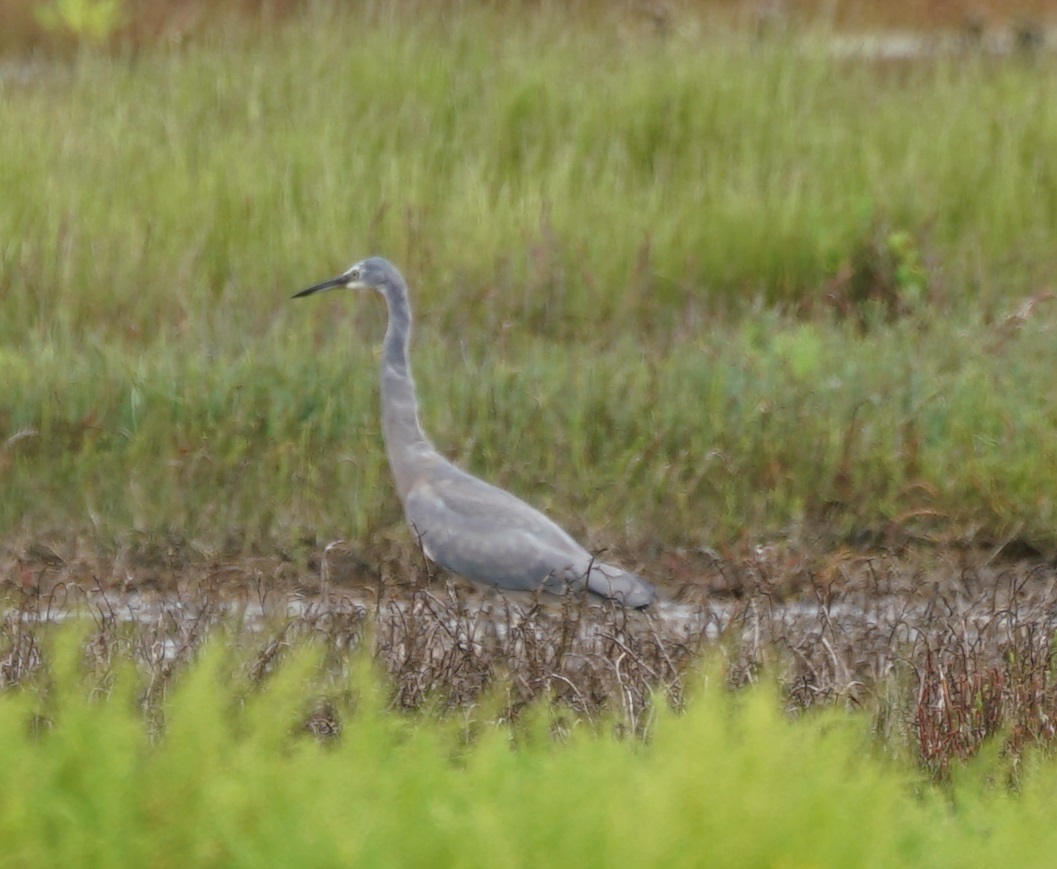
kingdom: Animalia
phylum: Chordata
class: Aves
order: Pelecaniformes
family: Ardeidae
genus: Egretta
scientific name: Egretta novaehollandiae
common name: White-faced heron
